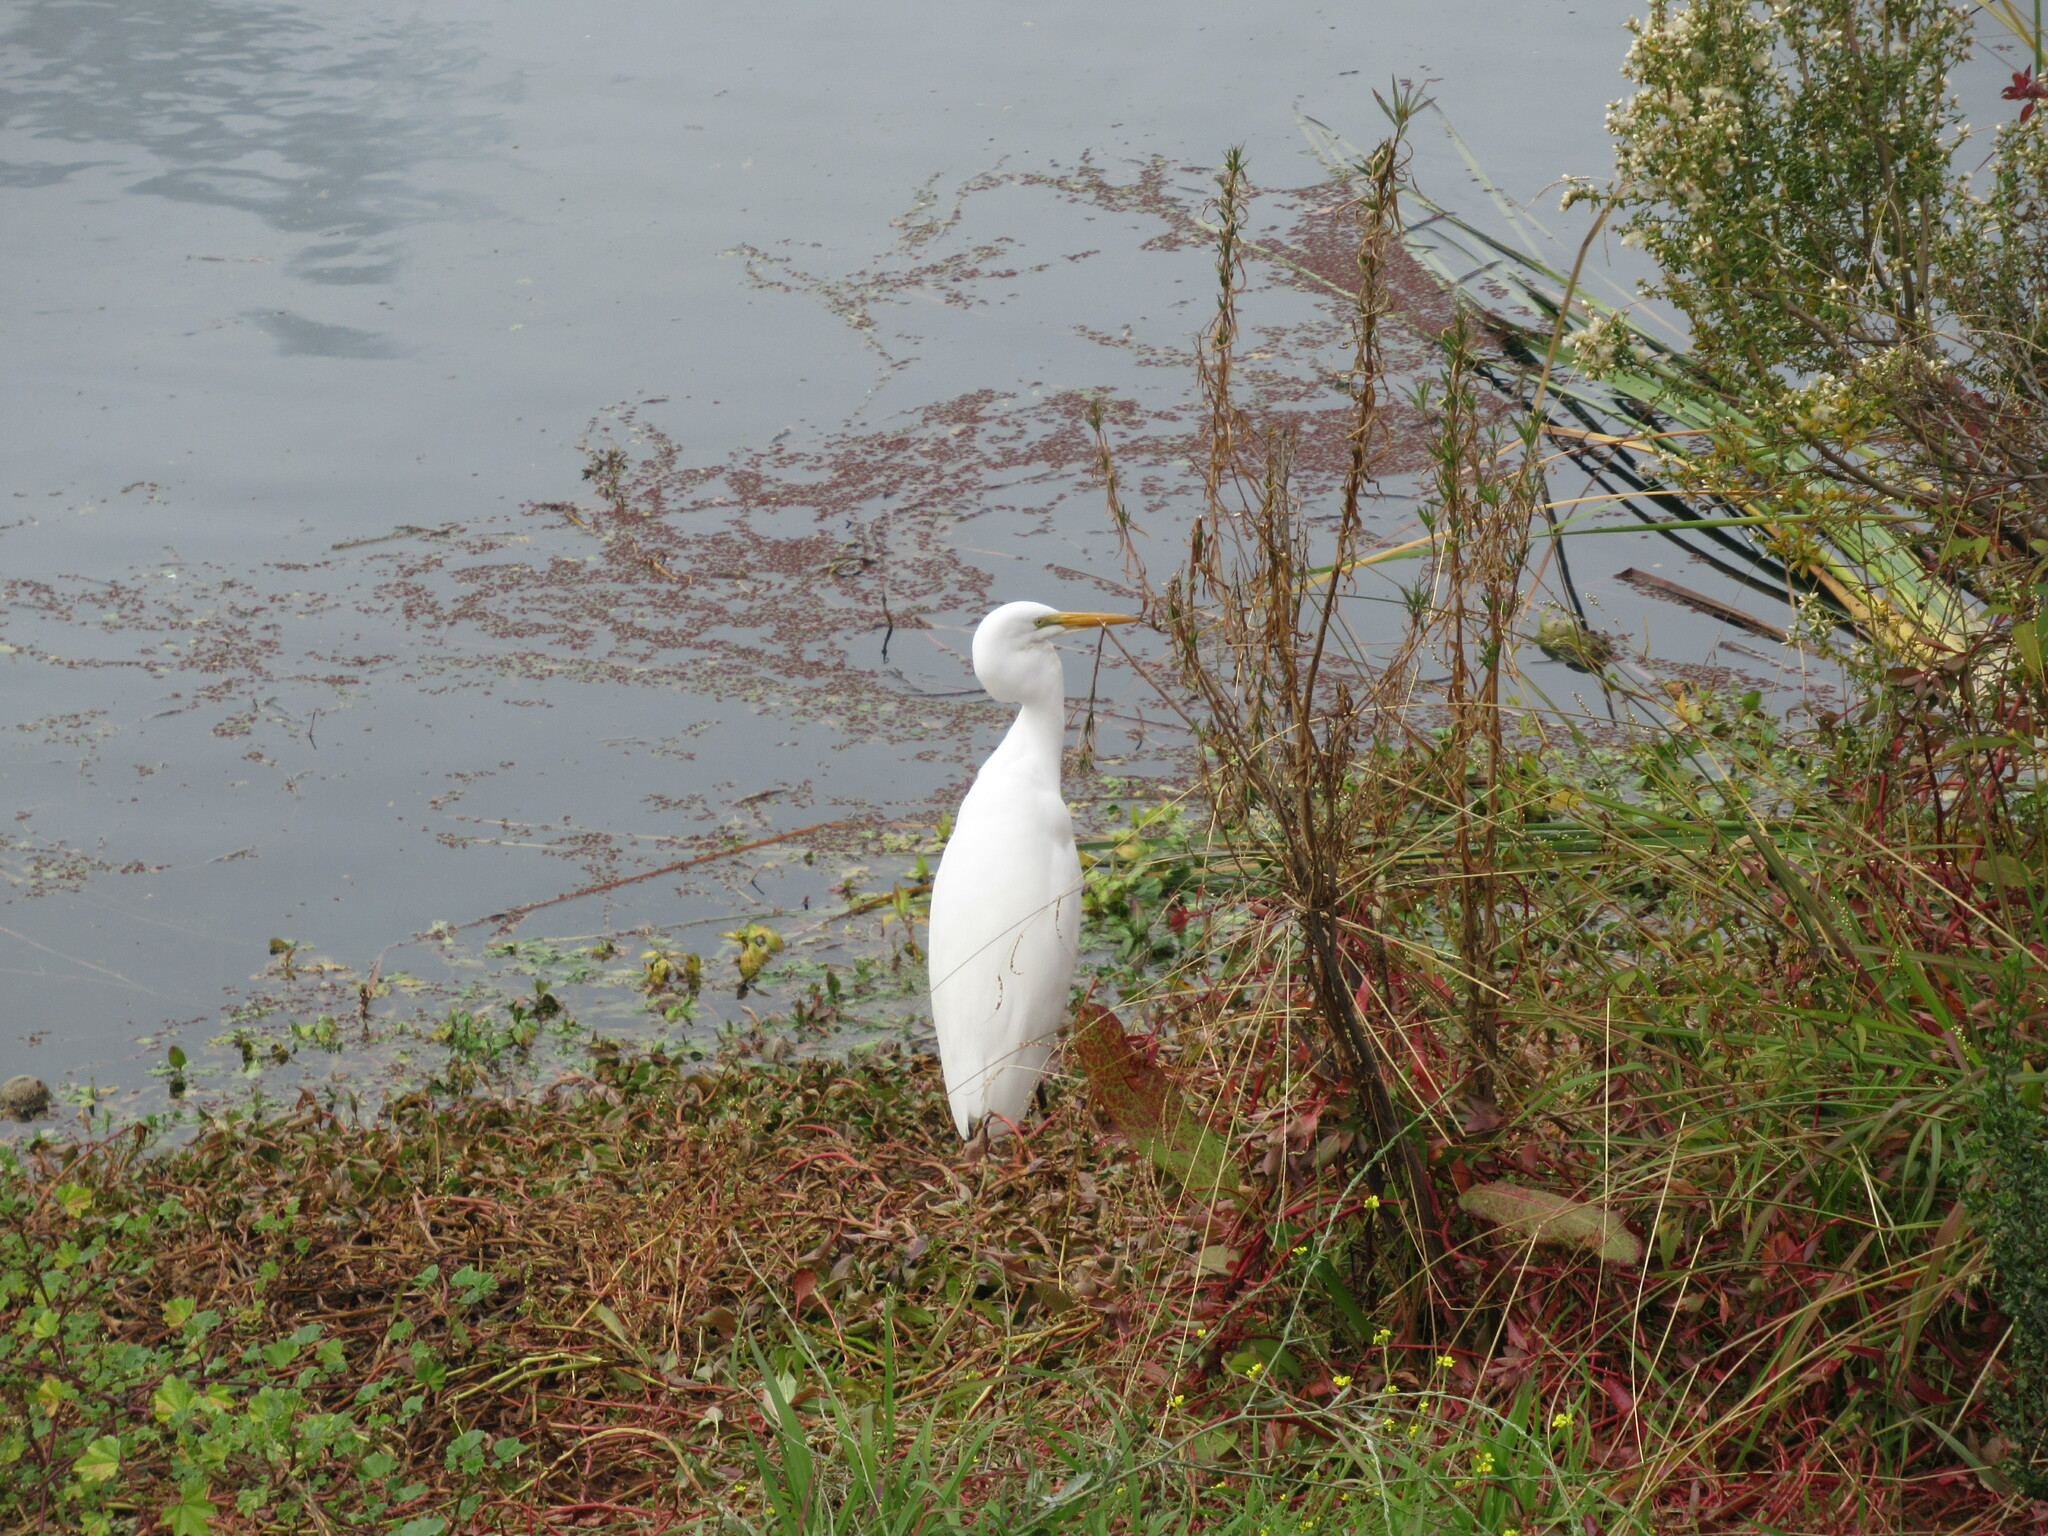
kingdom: Animalia
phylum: Chordata
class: Aves
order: Pelecaniformes
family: Ardeidae
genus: Ardea
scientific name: Ardea alba
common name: Great egret
